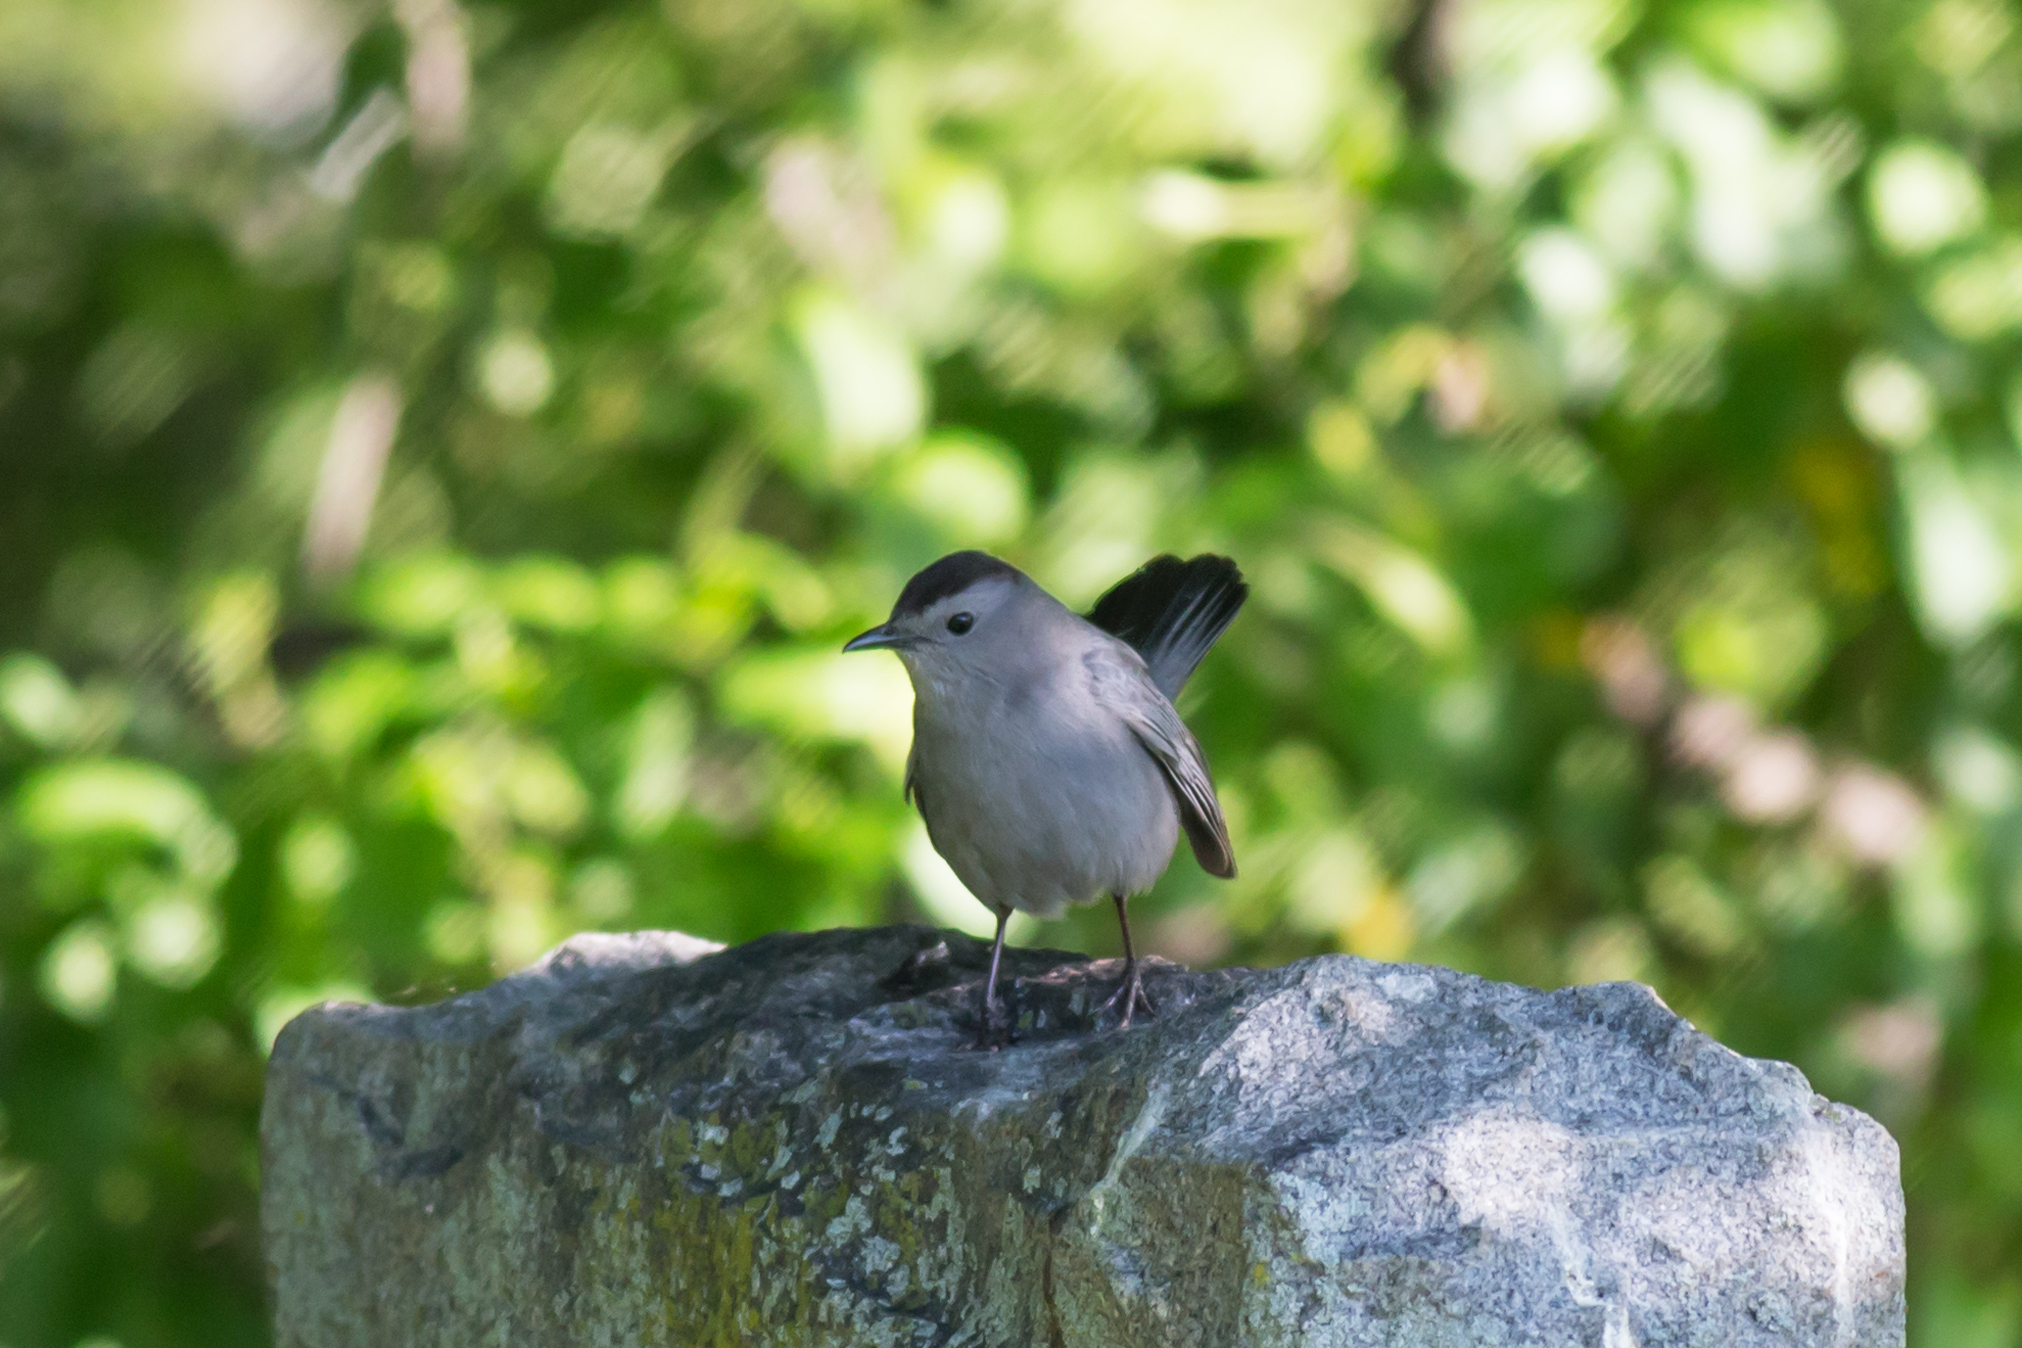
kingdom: Animalia
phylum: Chordata
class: Aves
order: Passeriformes
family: Mimidae
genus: Dumetella
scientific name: Dumetella carolinensis
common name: Gray catbird
